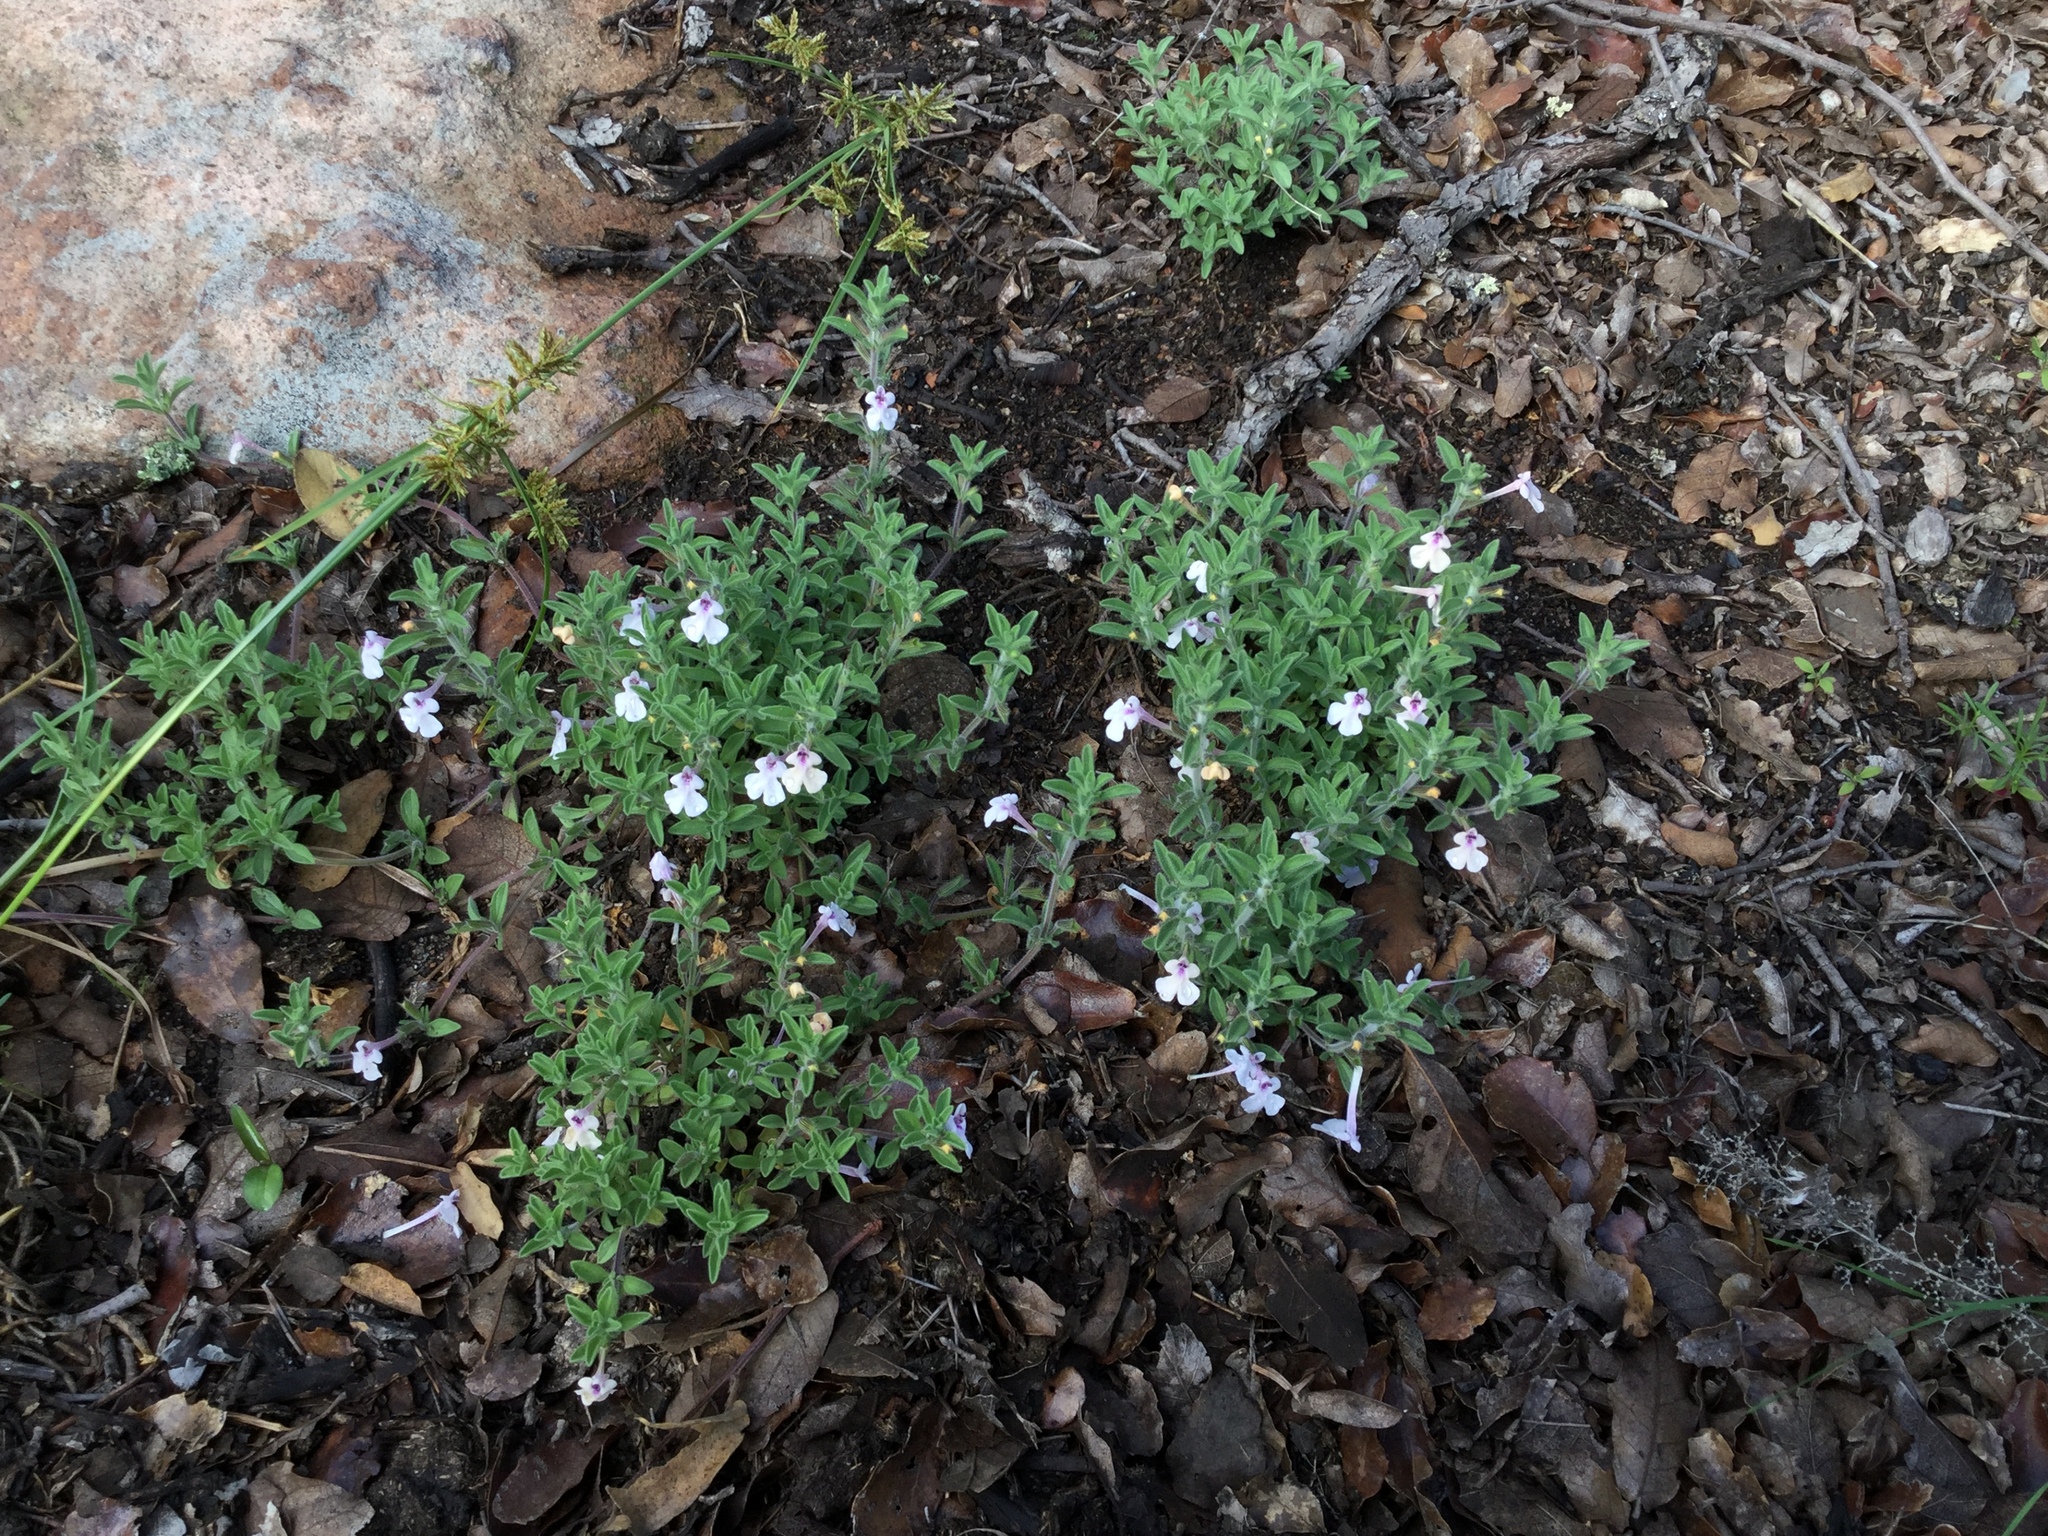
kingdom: Plantae
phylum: Tracheophyta
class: Magnoliopsida
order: Lamiales
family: Lamiaceae
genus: Salvia
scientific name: Salvia axillaris
